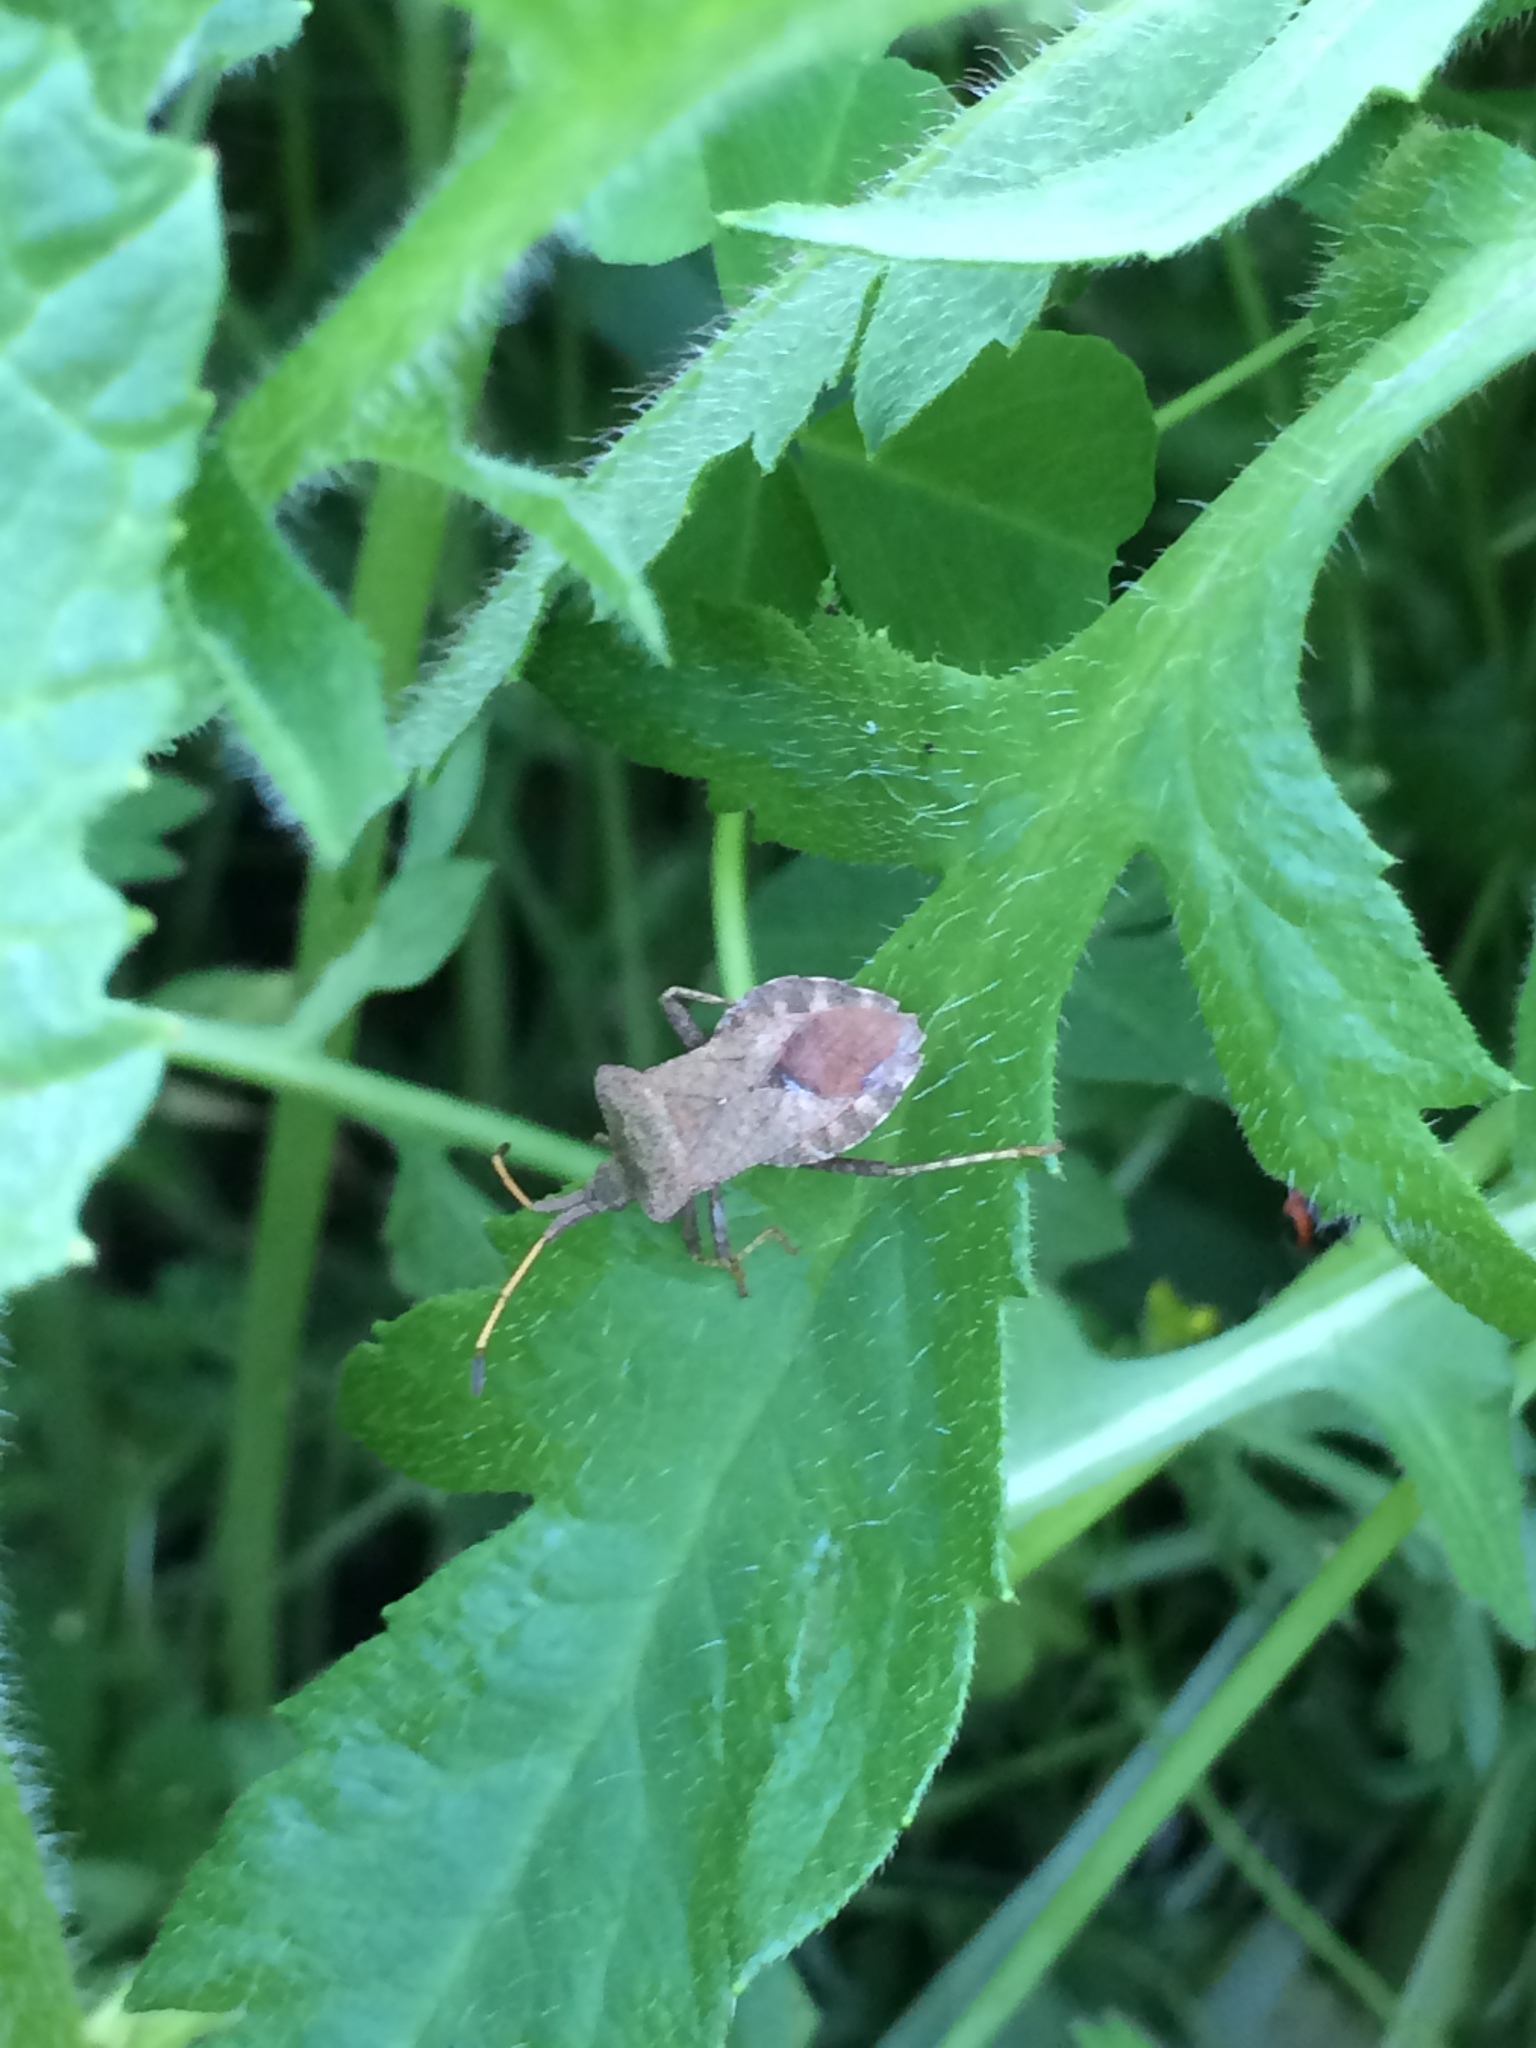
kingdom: Animalia
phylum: Arthropoda
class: Insecta
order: Hemiptera
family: Coreidae
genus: Coreus
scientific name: Coreus marginatus
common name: Dock bug
